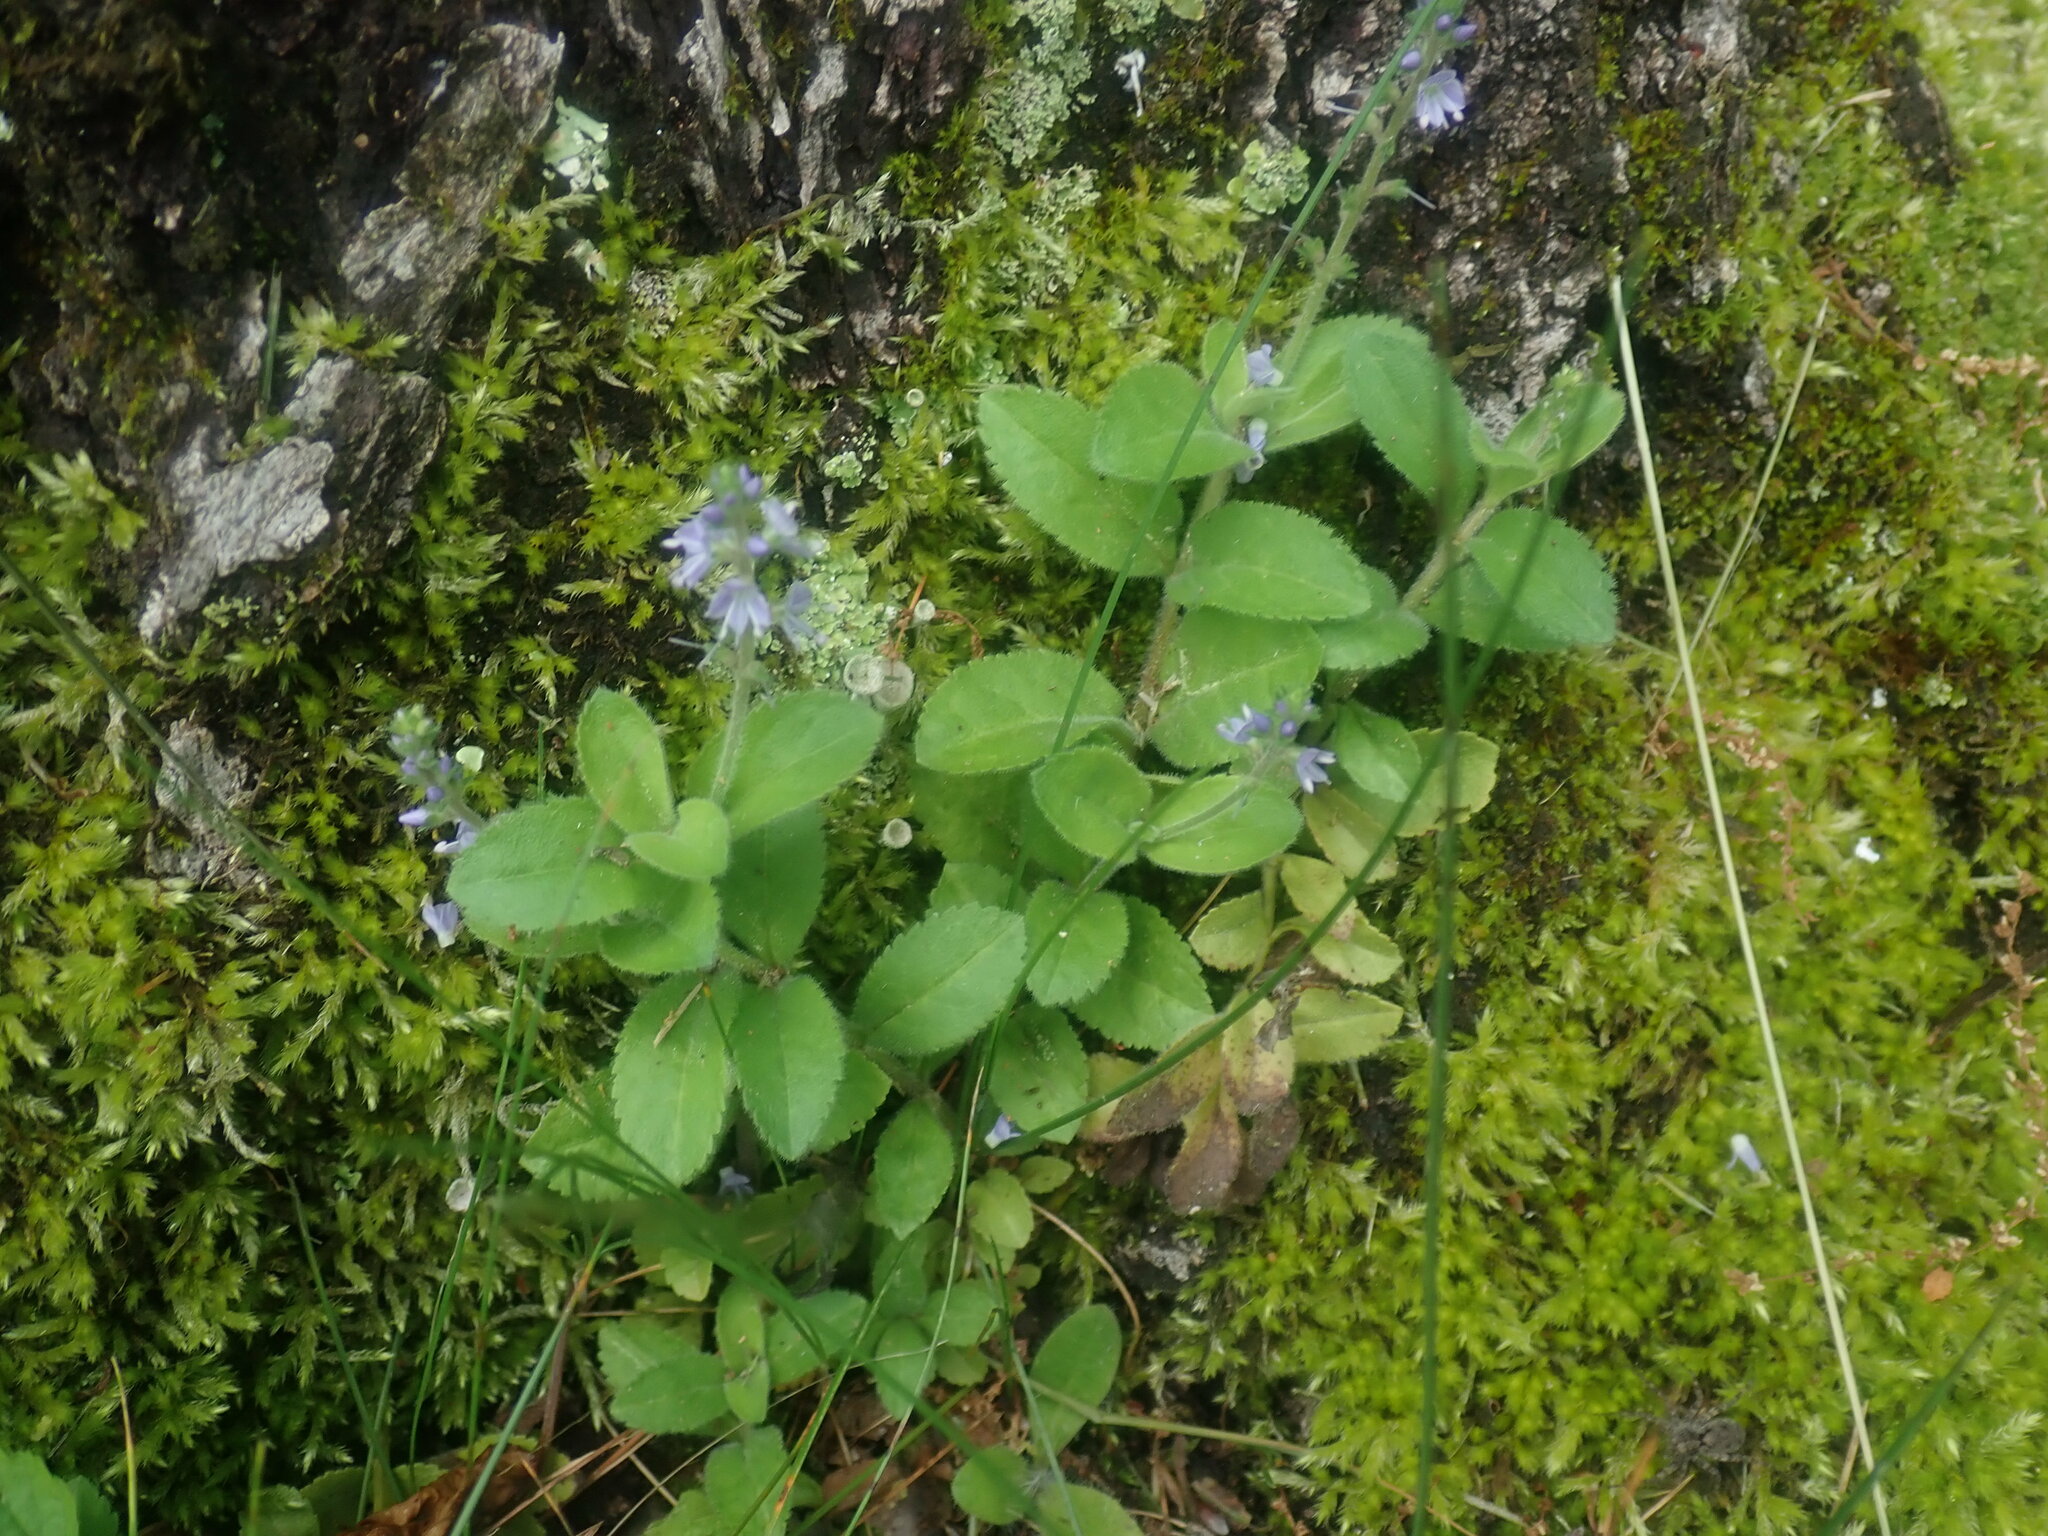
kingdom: Plantae
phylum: Tracheophyta
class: Magnoliopsida
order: Lamiales
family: Plantaginaceae
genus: Veronica
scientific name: Veronica officinalis
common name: Common speedwell
